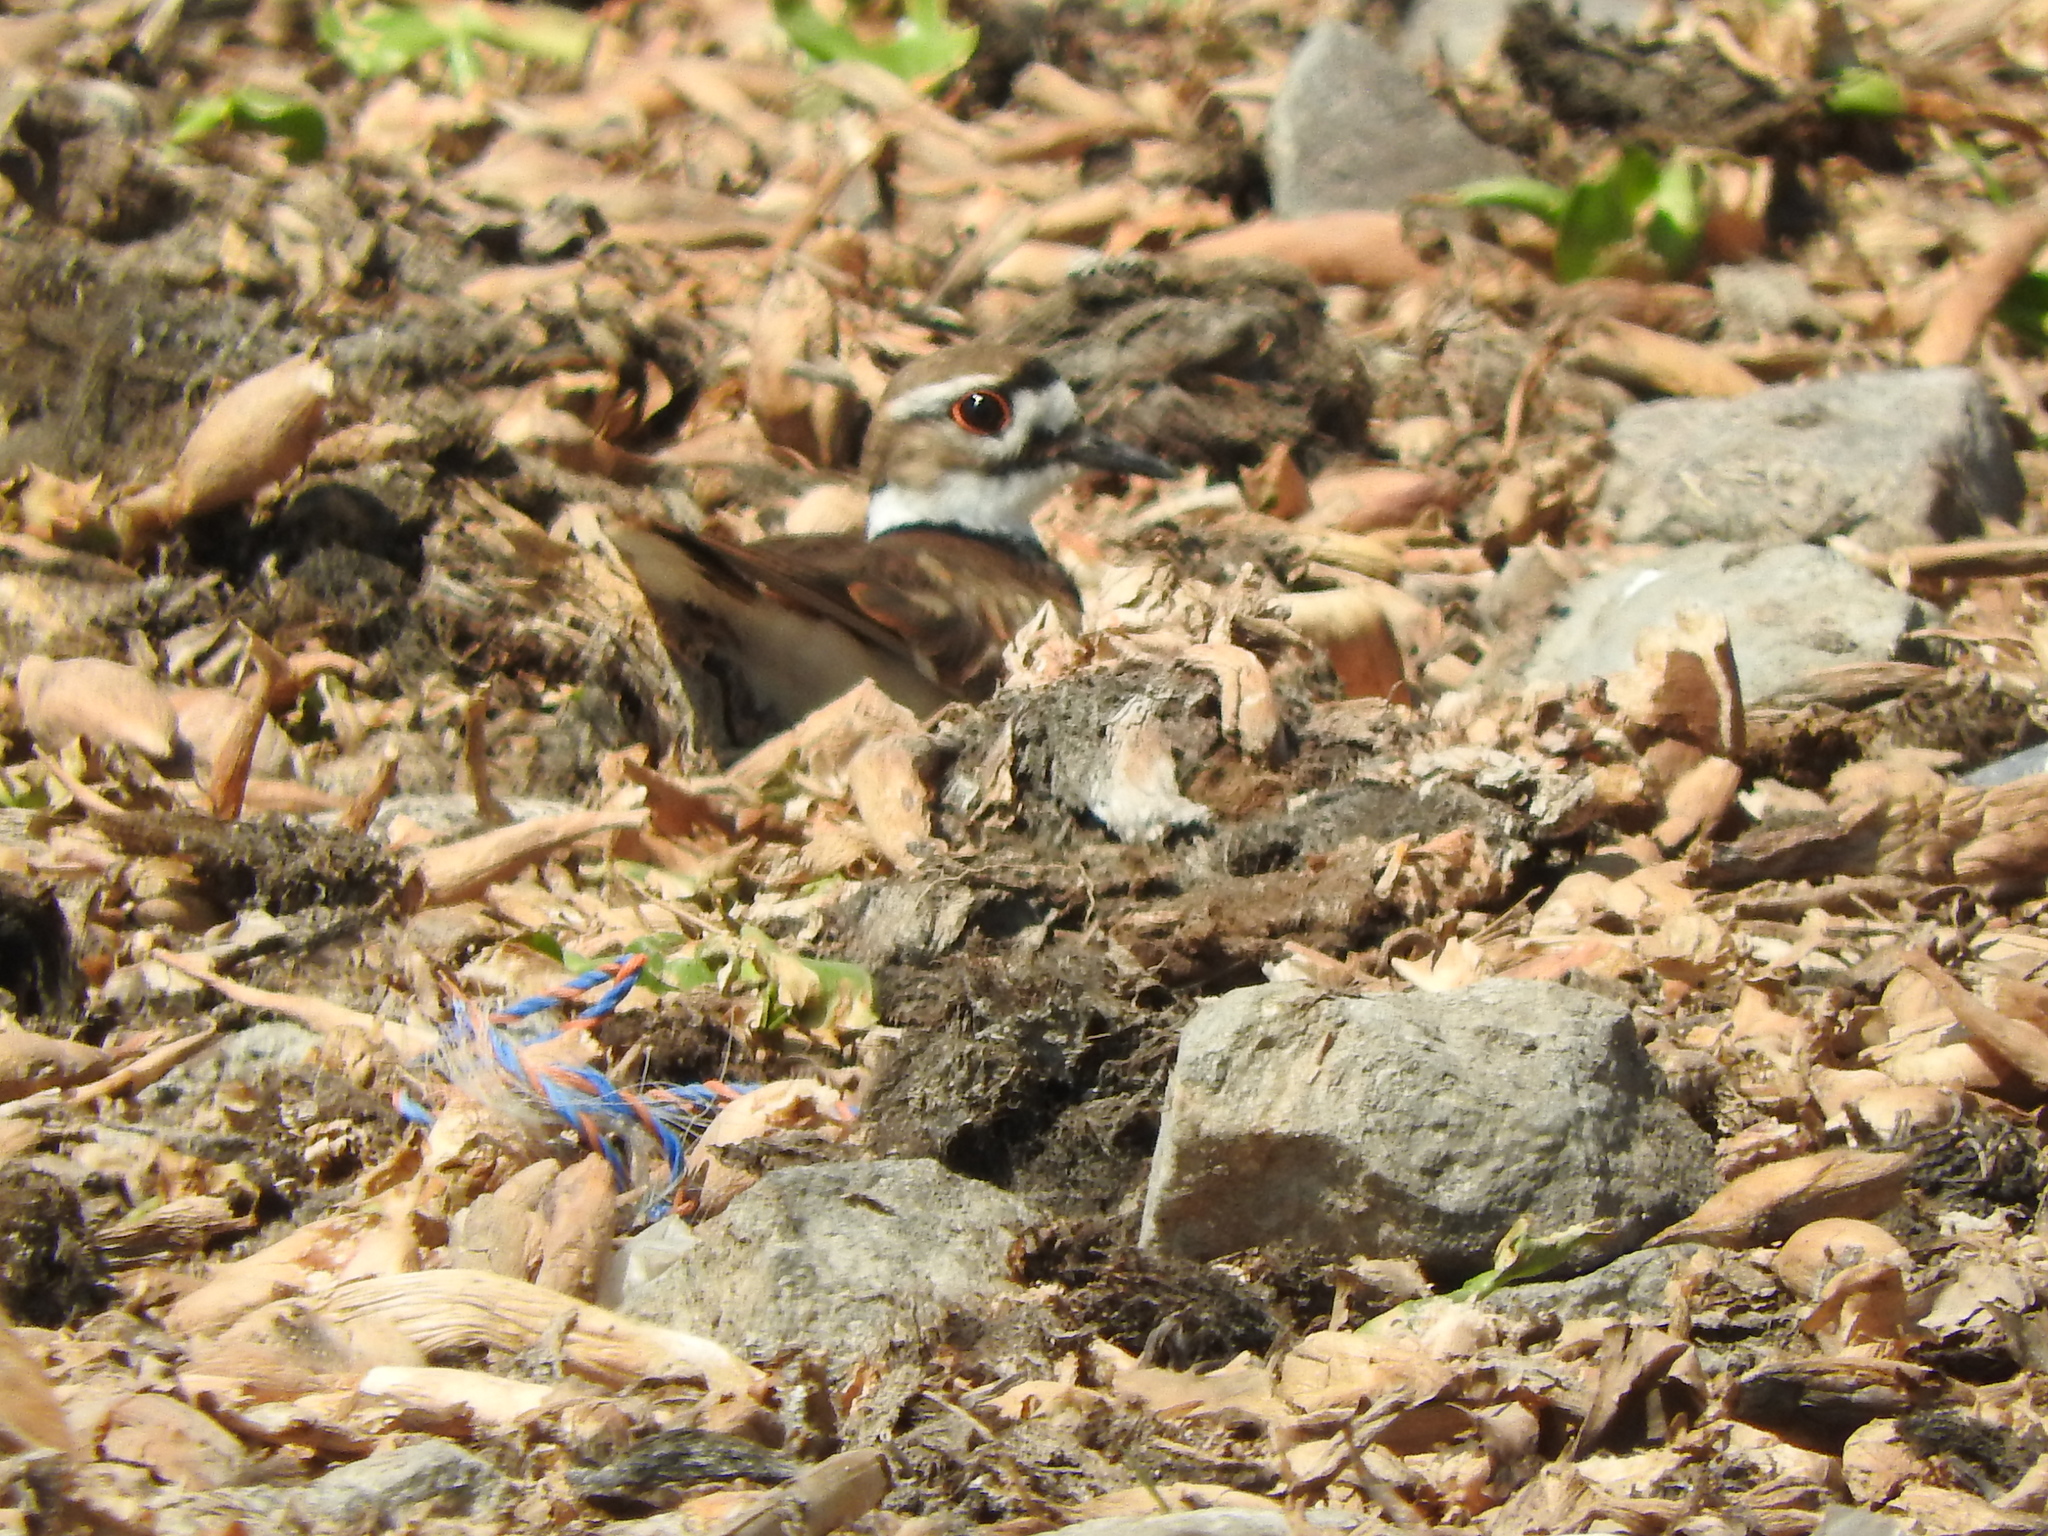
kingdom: Animalia
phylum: Chordata
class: Aves
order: Charadriiformes
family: Charadriidae
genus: Charadrius
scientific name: Charadrius vociferus
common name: Killdeer
